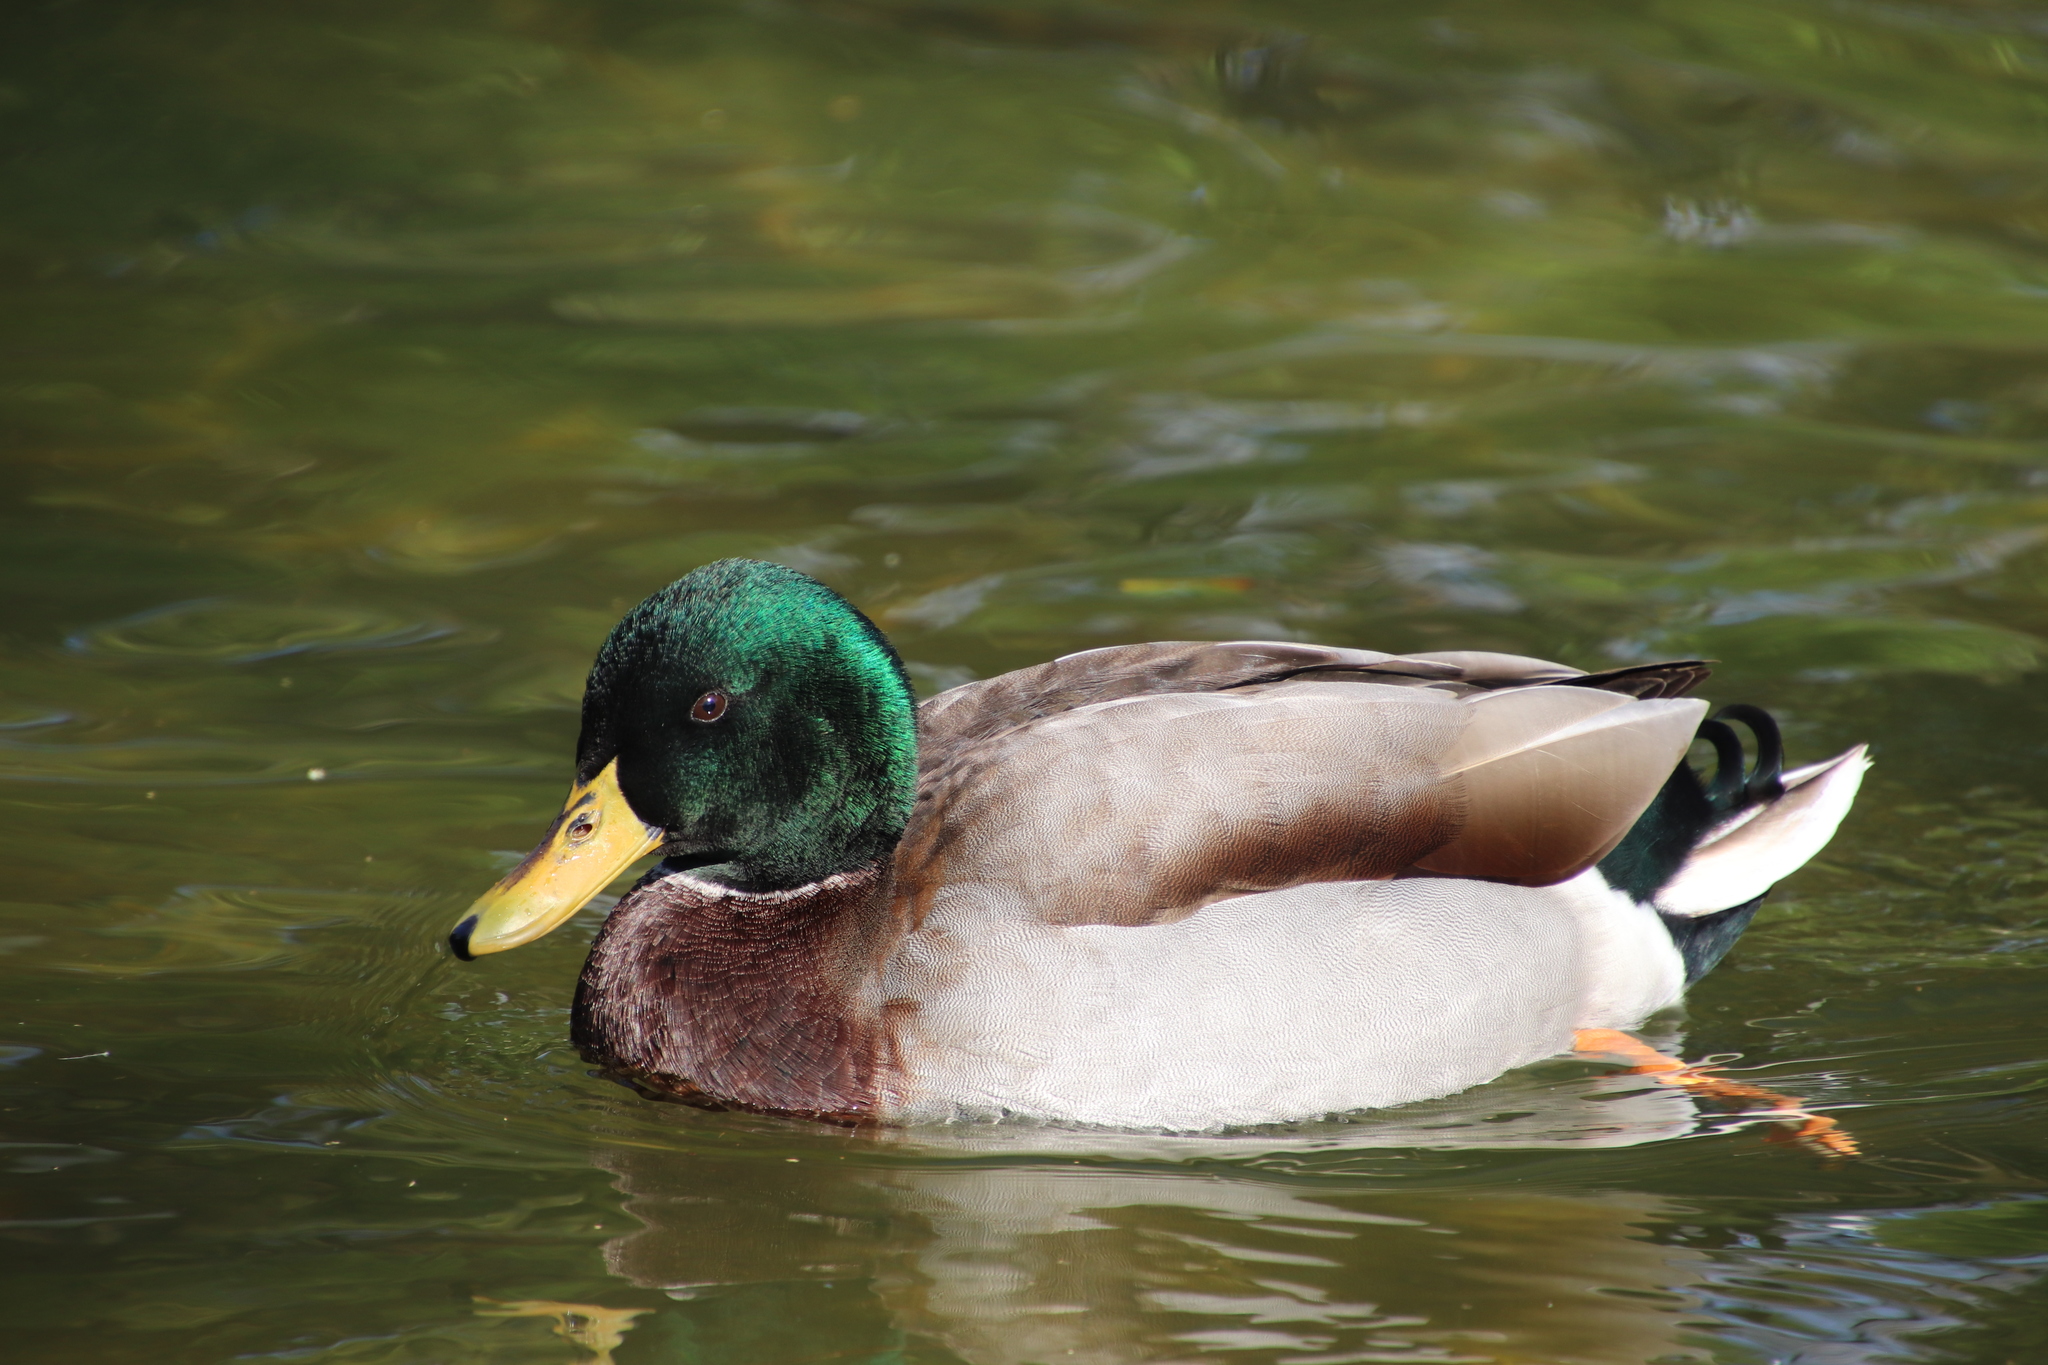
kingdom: Animalia
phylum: Chordata
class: Aves
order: Anseriformes
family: Anatidae
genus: Anas
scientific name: Anas platyrhynchos
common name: Mallard
